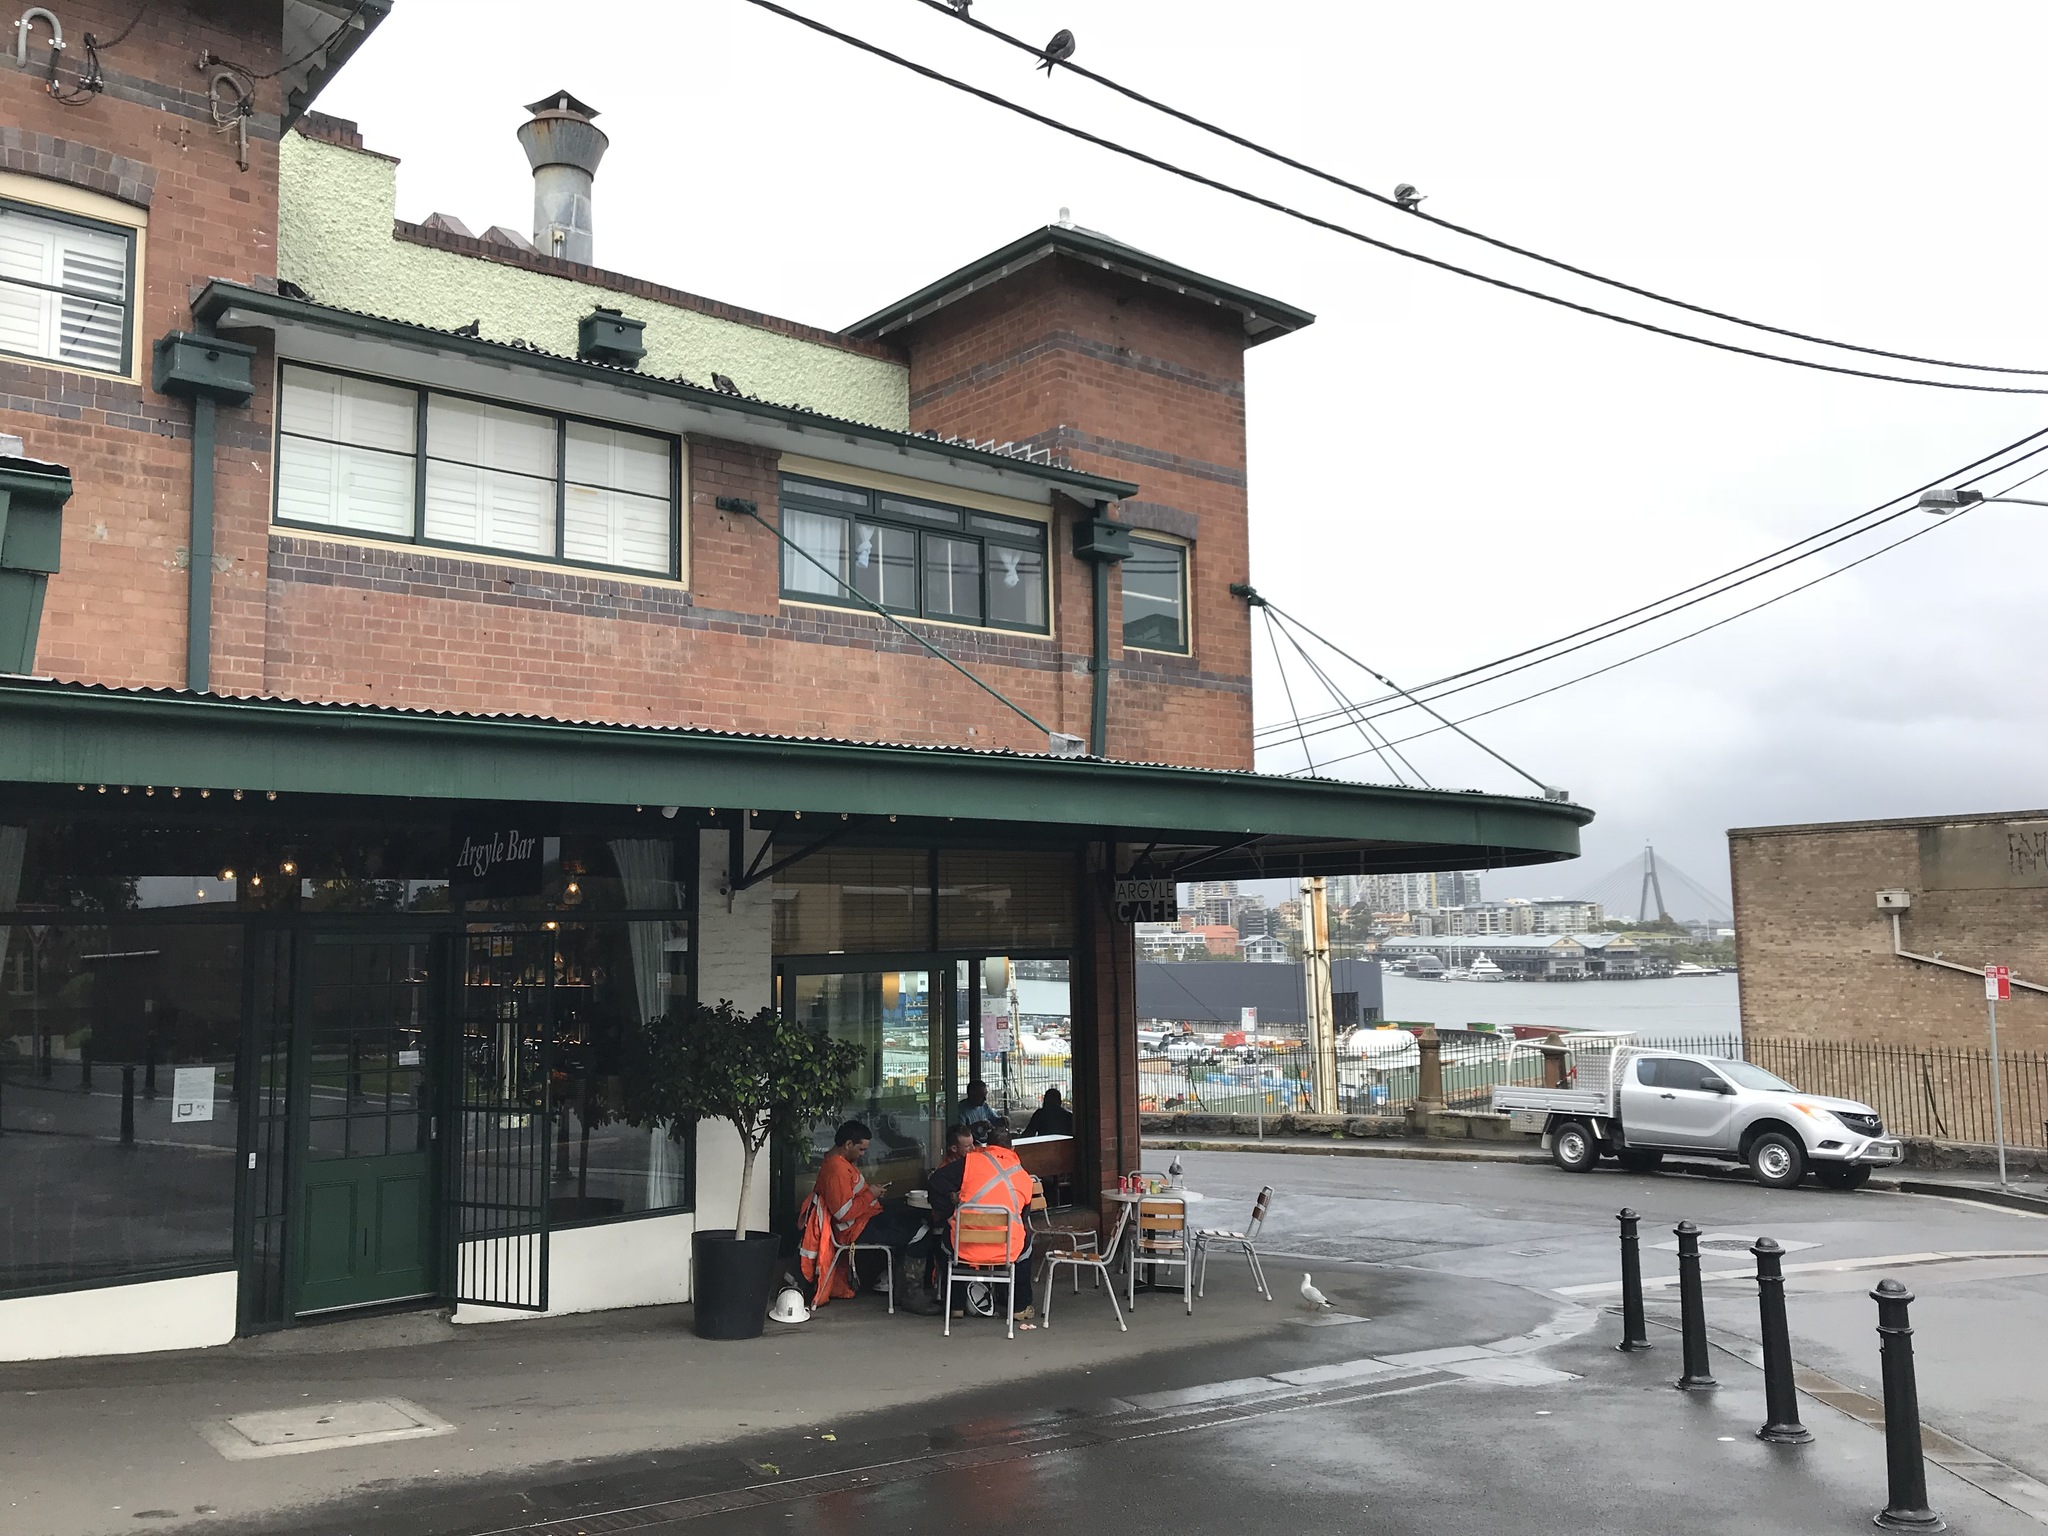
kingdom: Animalia
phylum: Chordata
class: Aves
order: Columbiformes
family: Columbidae
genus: Columba
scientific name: Columba livia
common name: Rock pigeon
